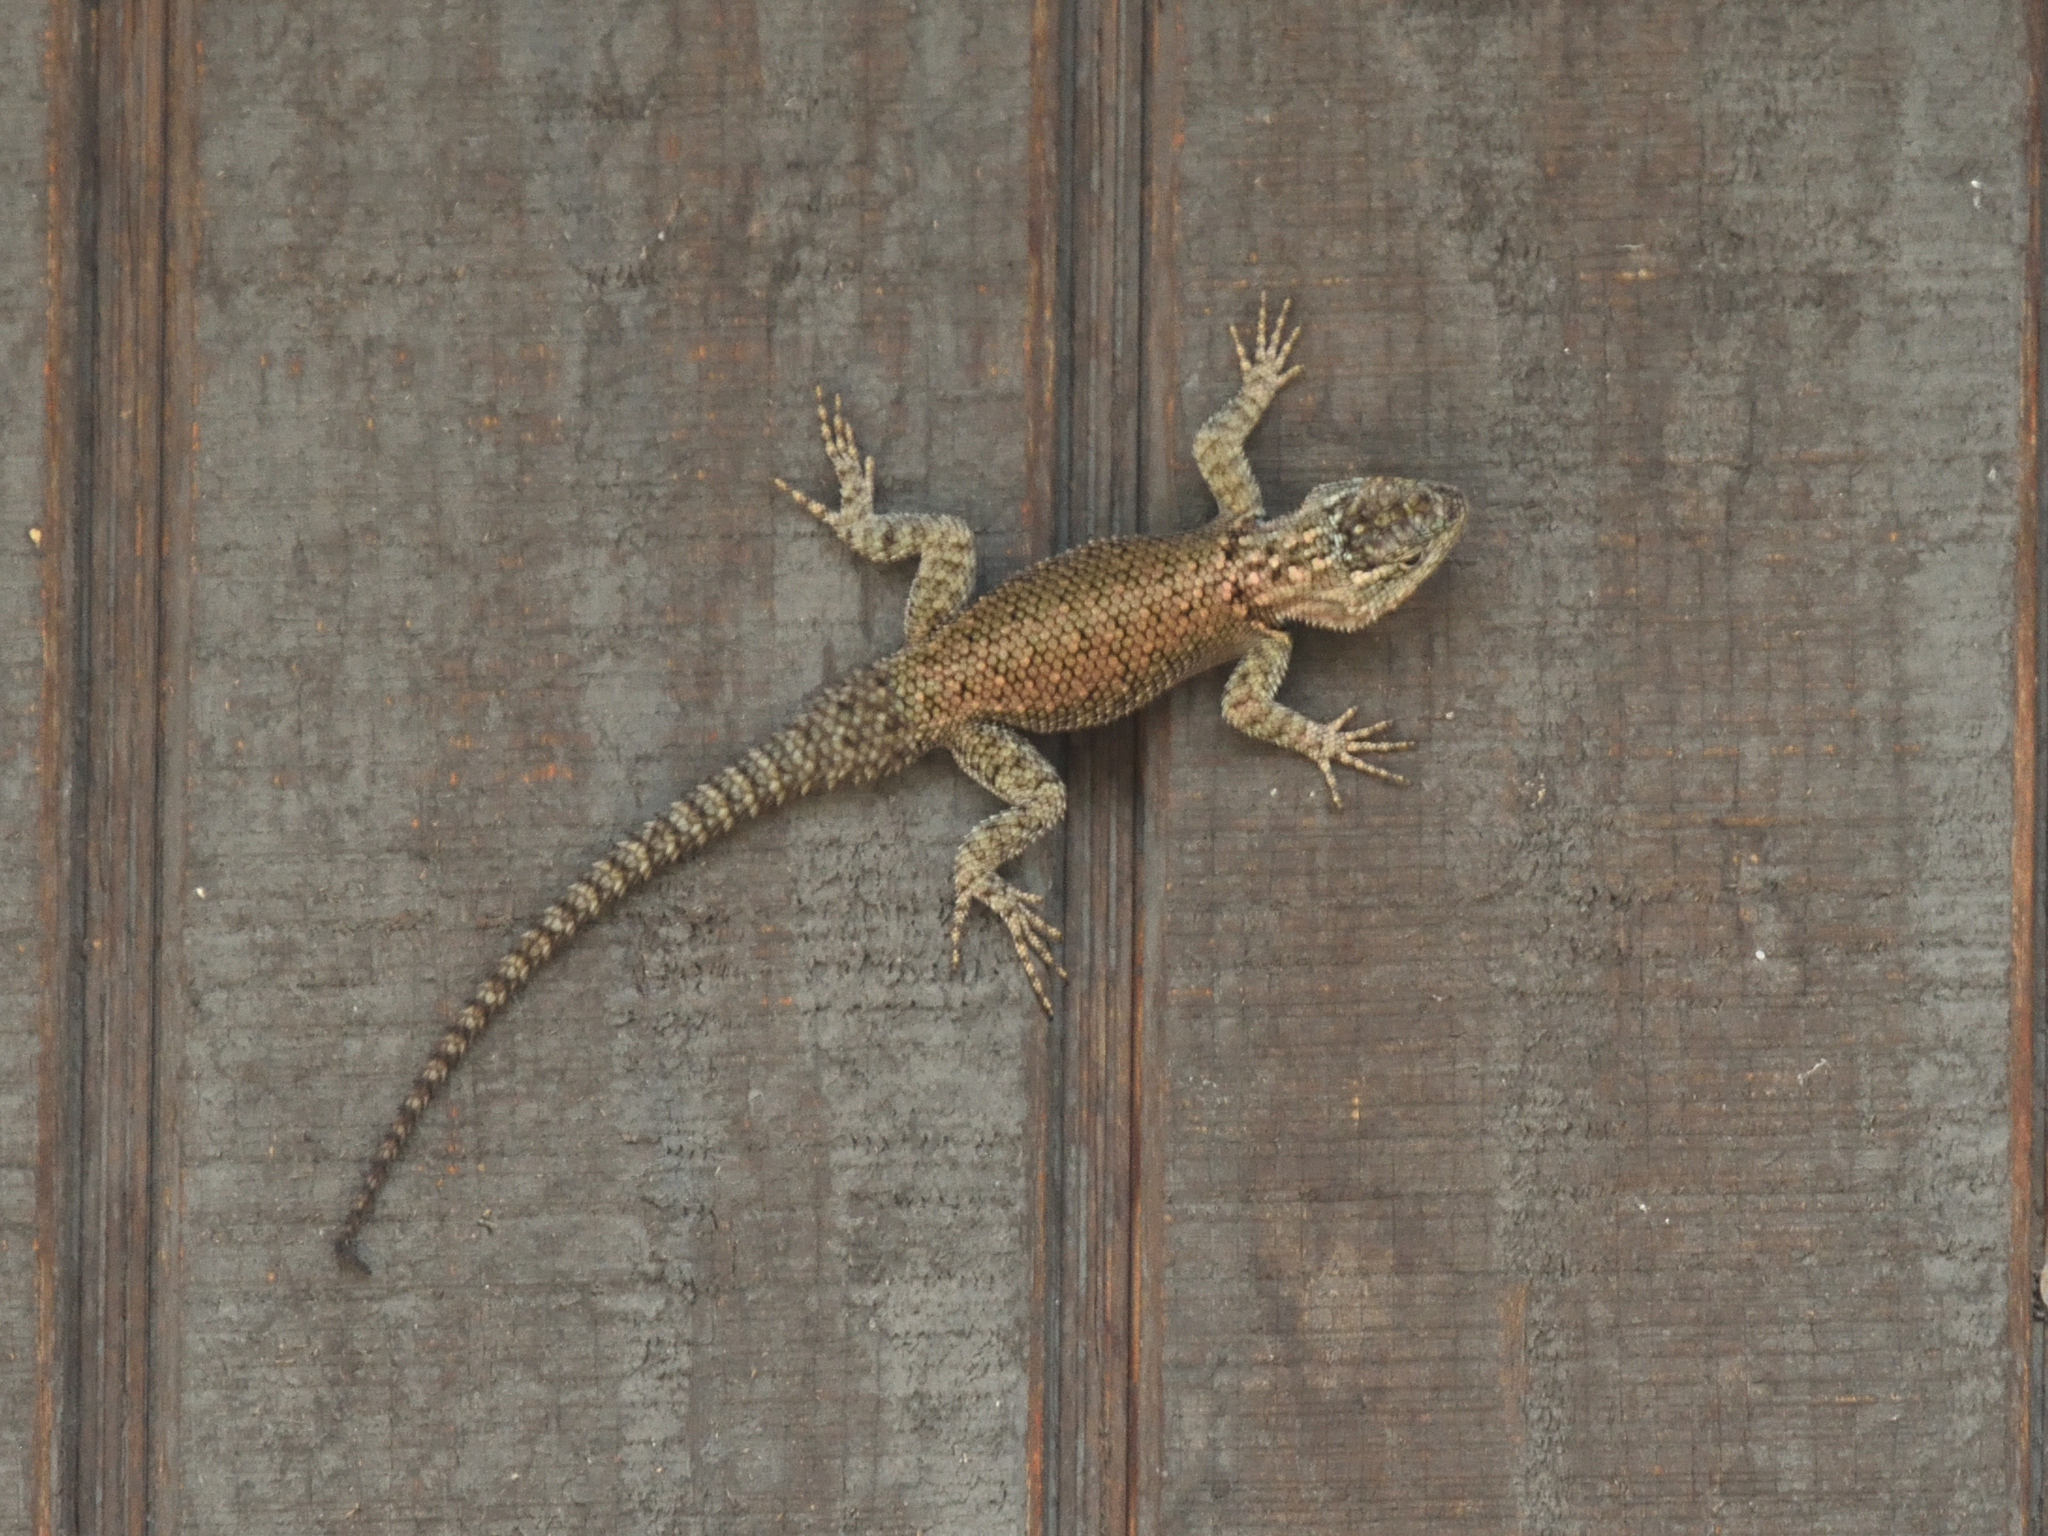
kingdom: Animalia
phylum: Chordata
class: Squamata
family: Phrynosomatidae
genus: Sceloporus
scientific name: Sceloporus jarrovii
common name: Yarrow's spiny lizard
